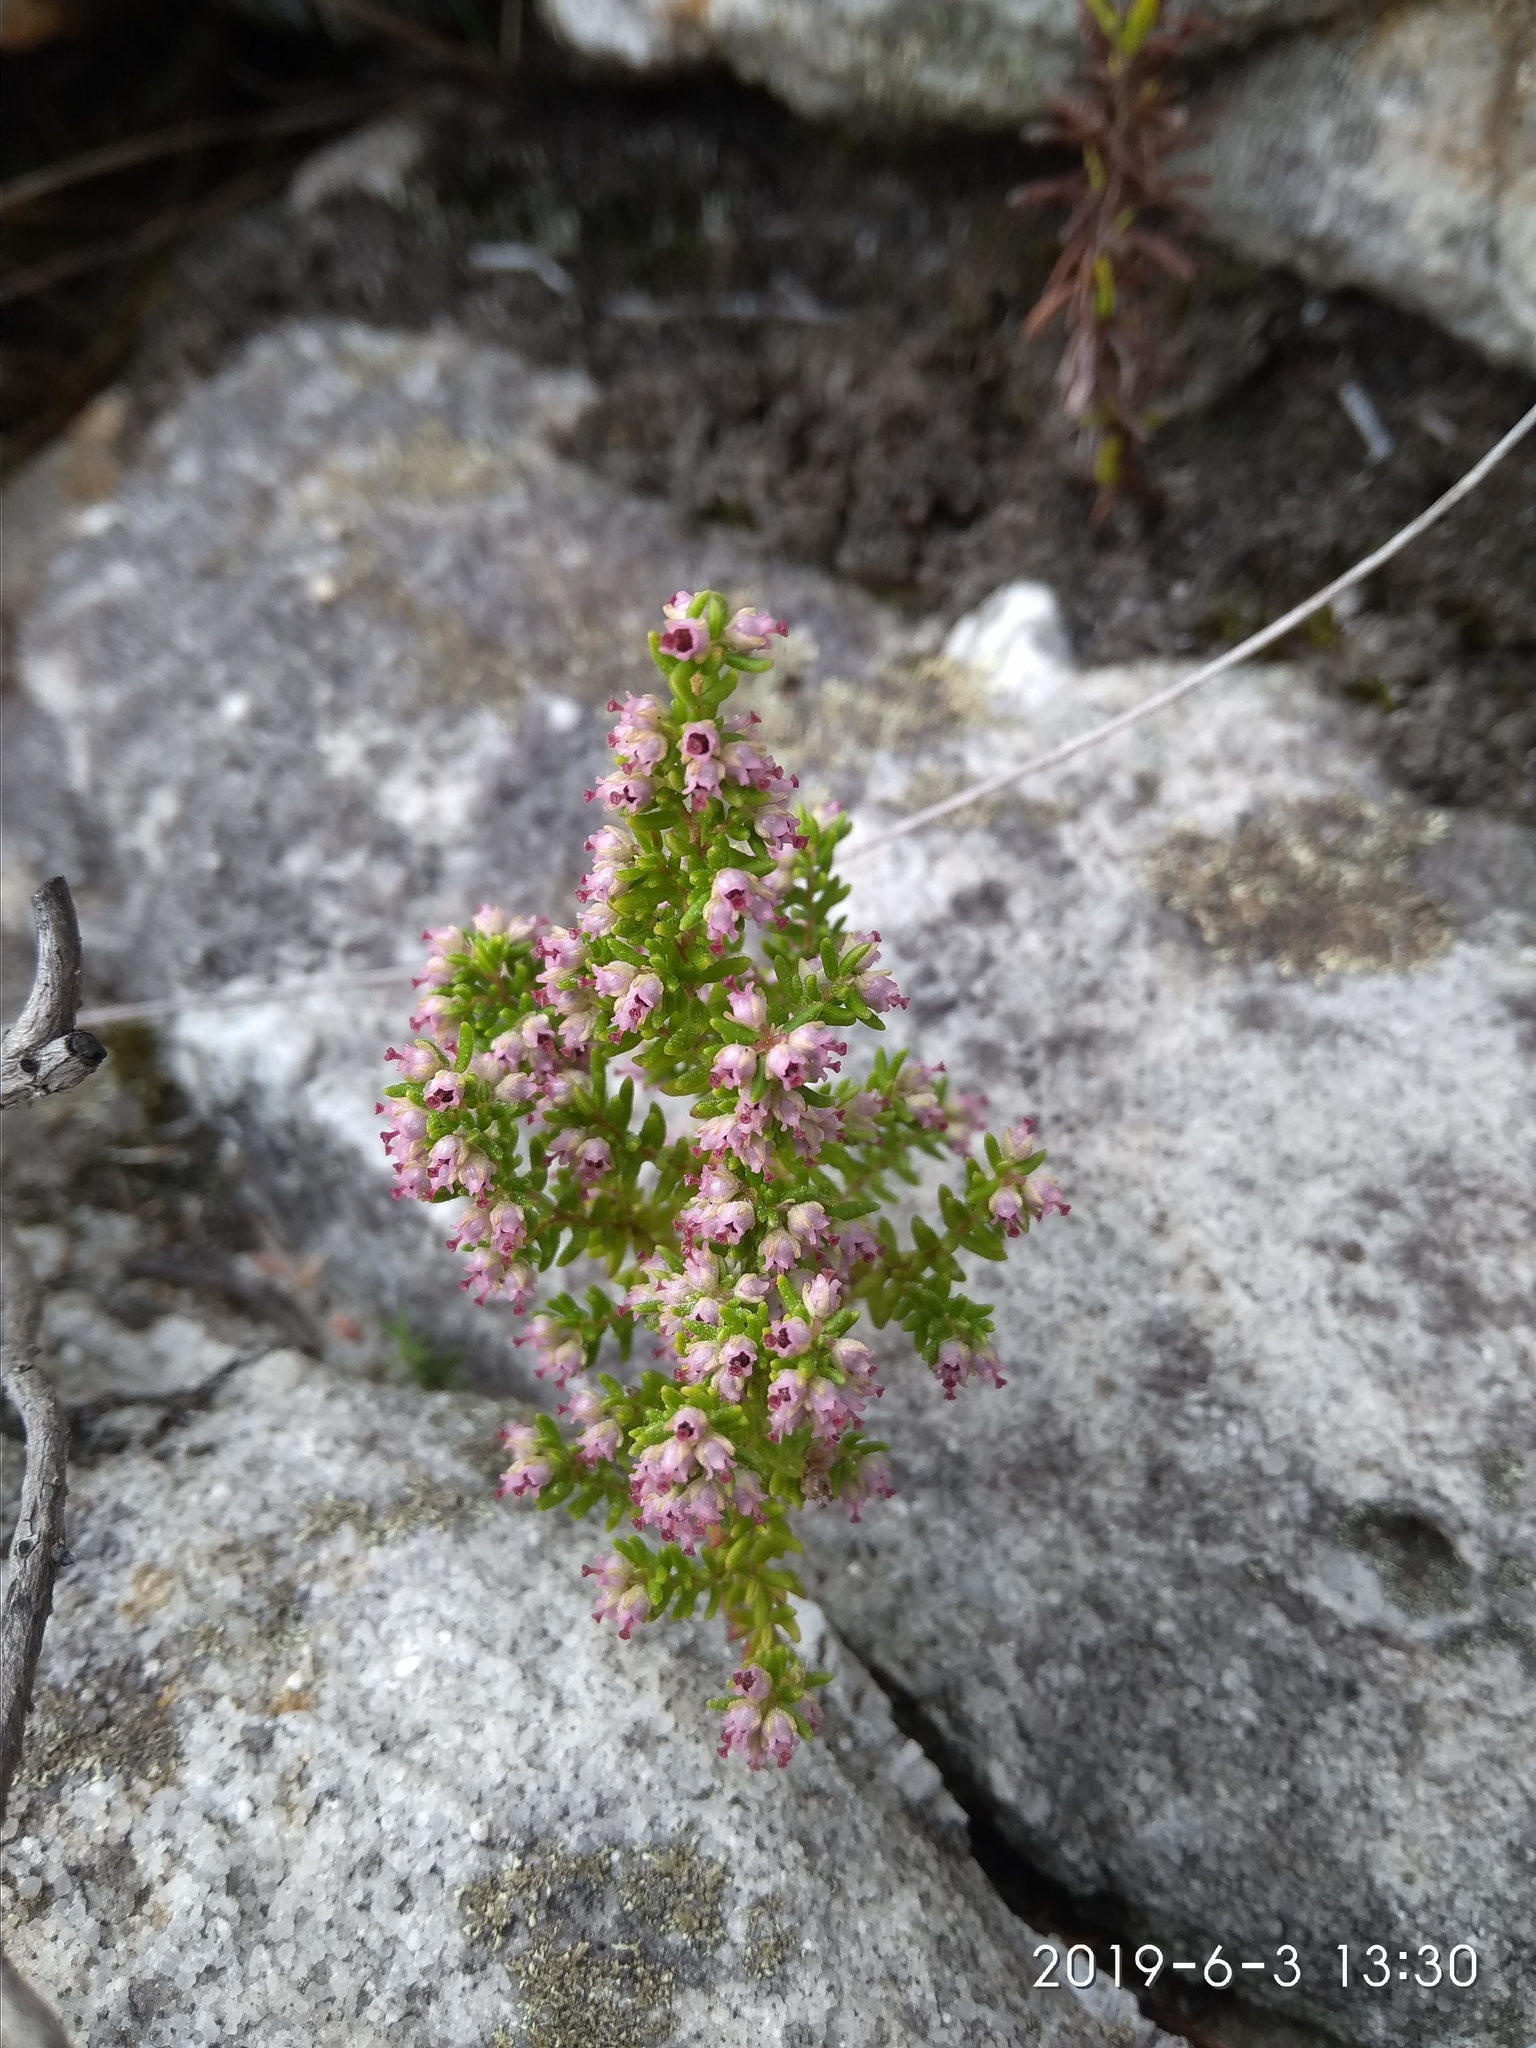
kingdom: Plantae
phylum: Tracheophyta
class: Magnoliopsida
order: Ericales
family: Ericaceae
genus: Erica
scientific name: Erica hispidula
